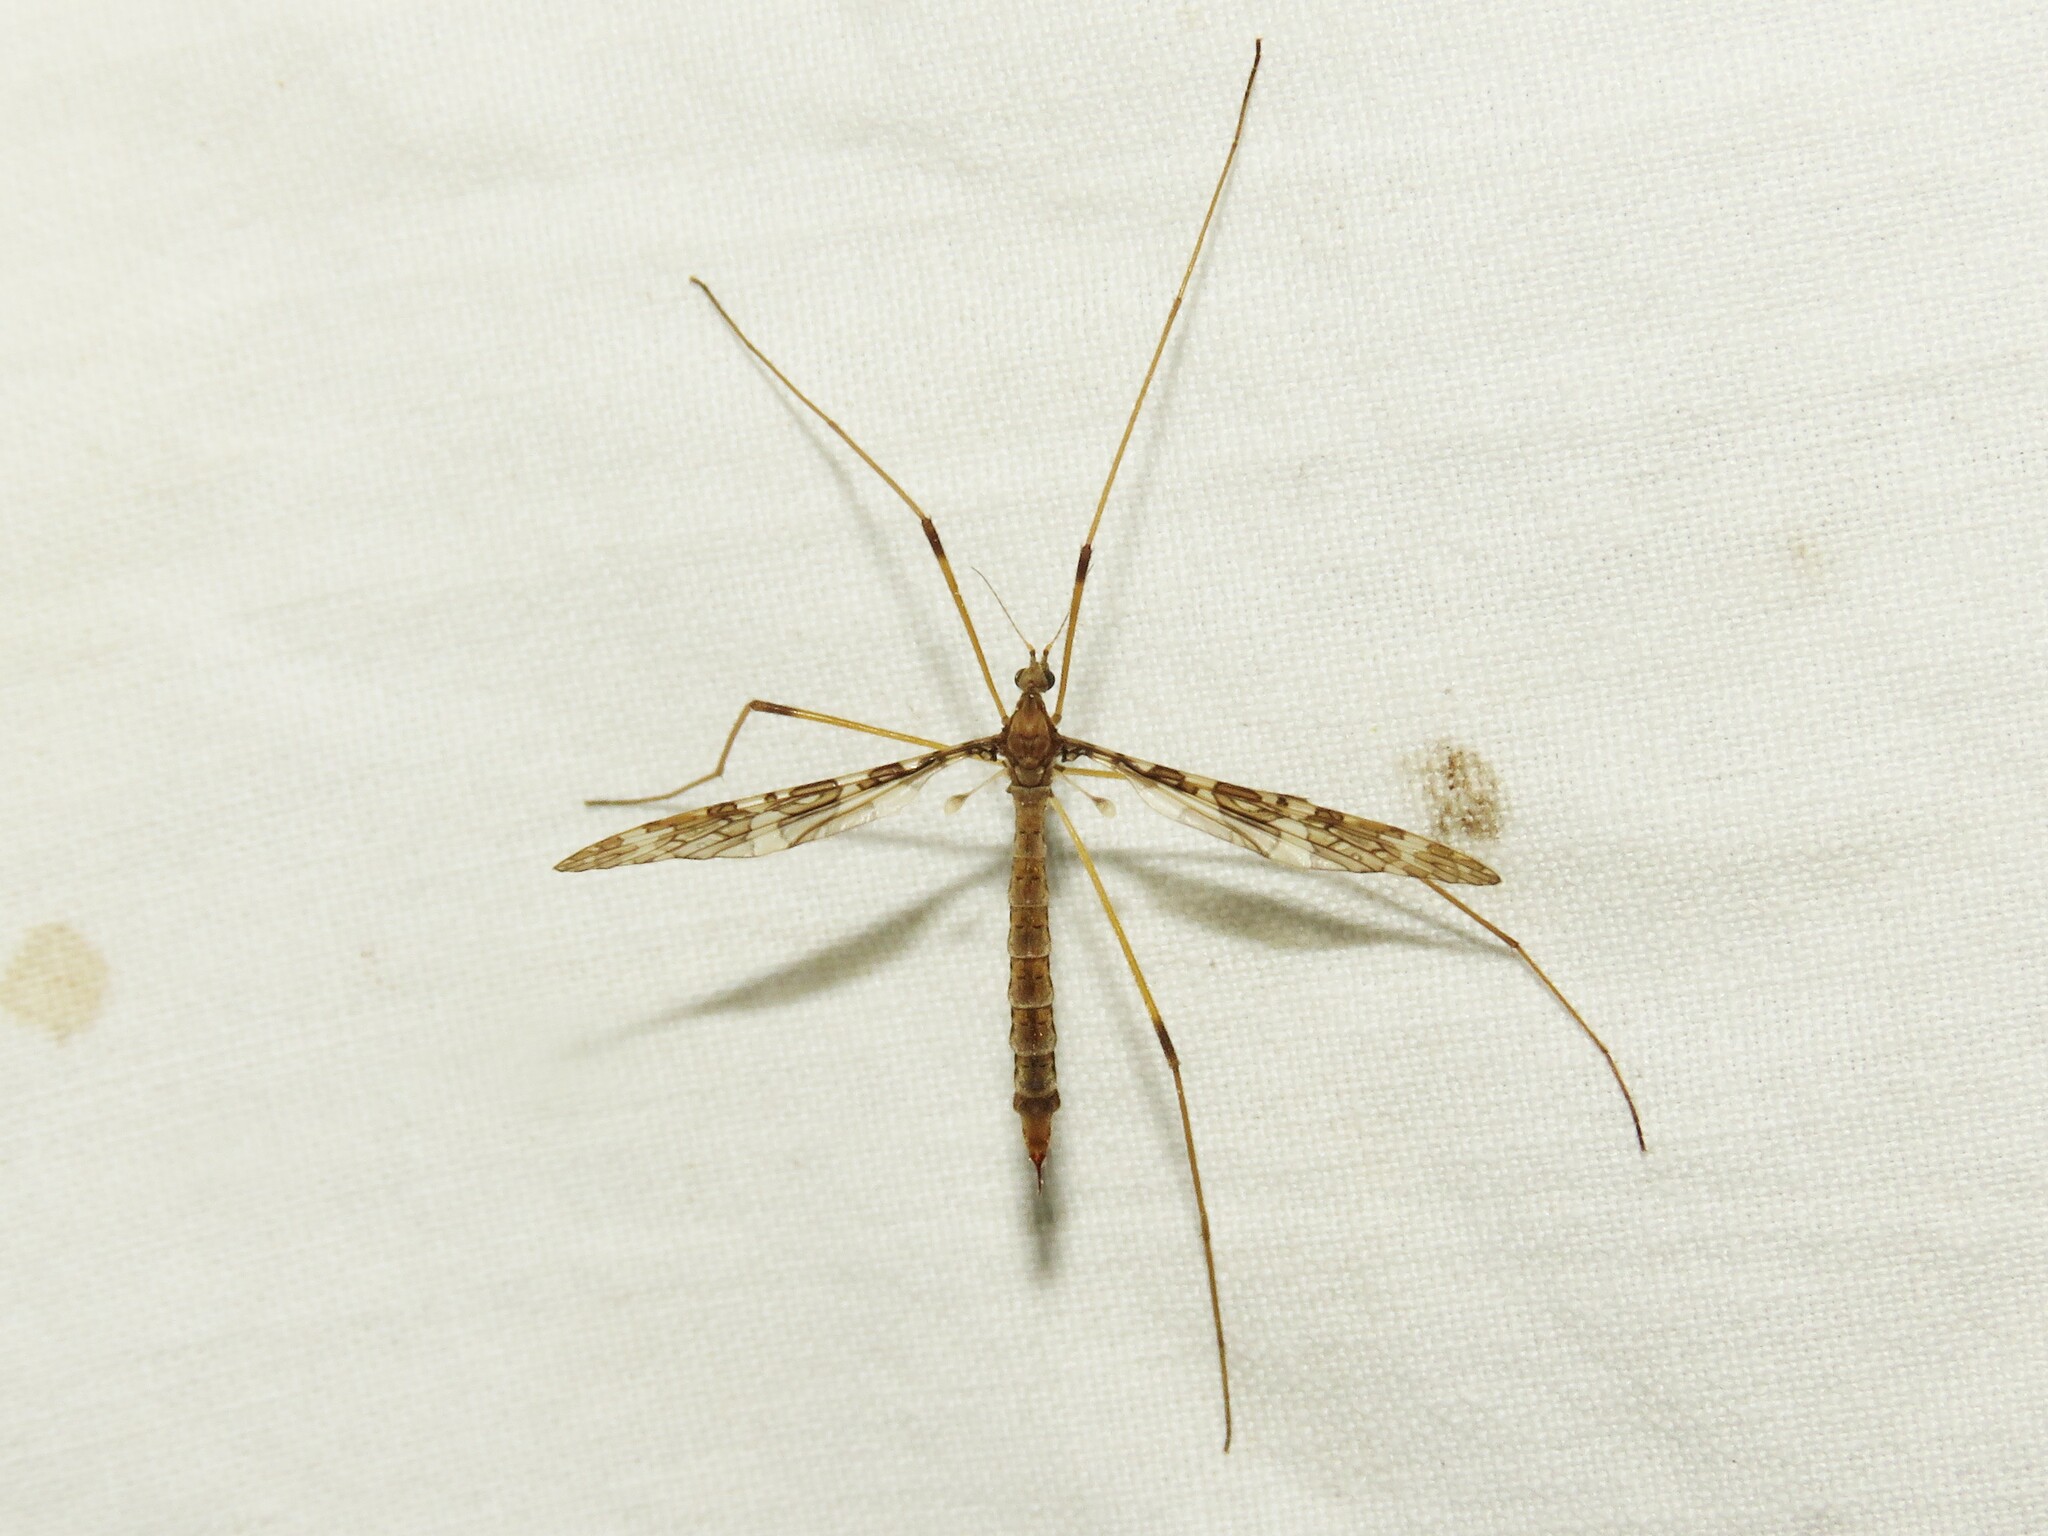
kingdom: Animalia
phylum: Arthropoda
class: Insecta
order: Diptera
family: Limoniidae
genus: Epiphragma
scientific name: Epiphragma fasciapenne
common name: Band-winged crane fly
